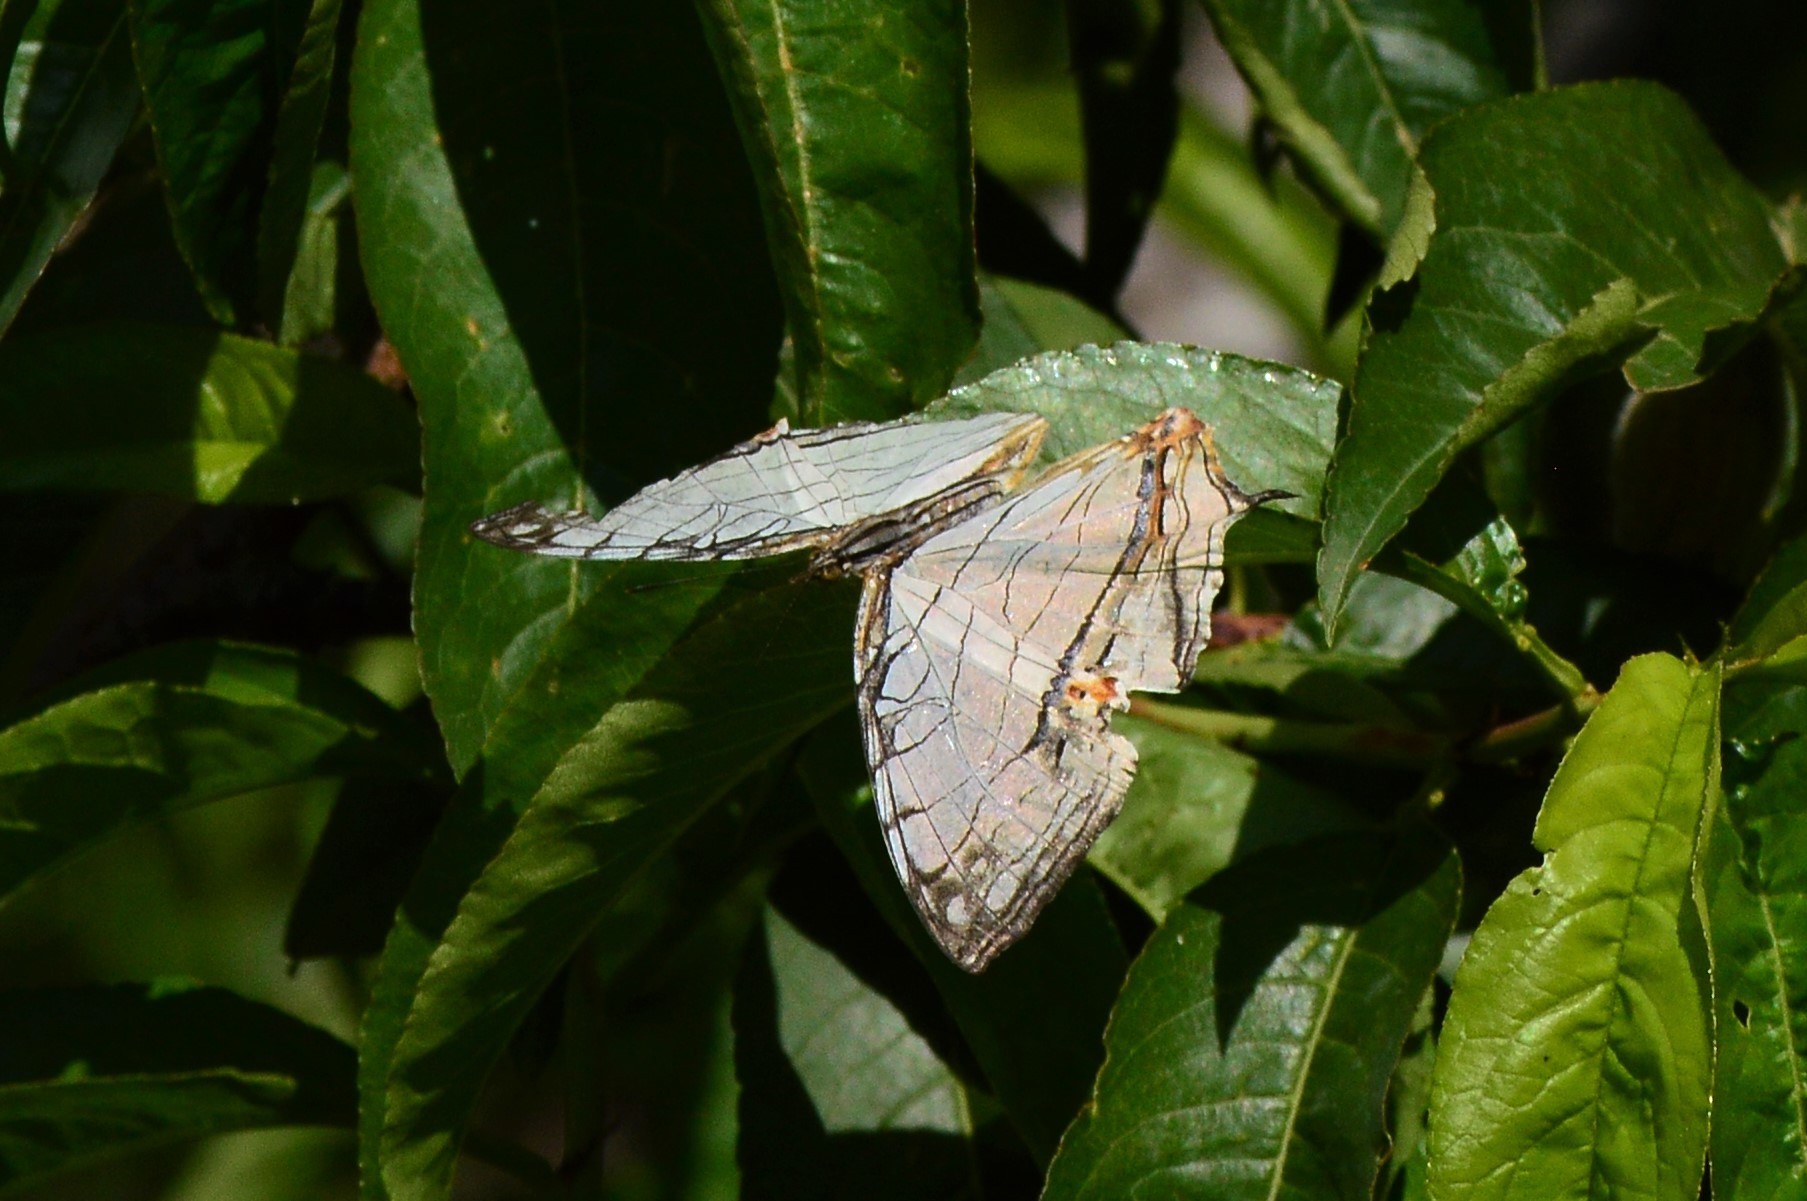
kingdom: Animalia
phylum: Arthropoda
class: Insecta
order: Lepidoptera
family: Nymphalidae
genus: Cyrestis
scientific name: Cyrestis thyodamas
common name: Common mapwing
